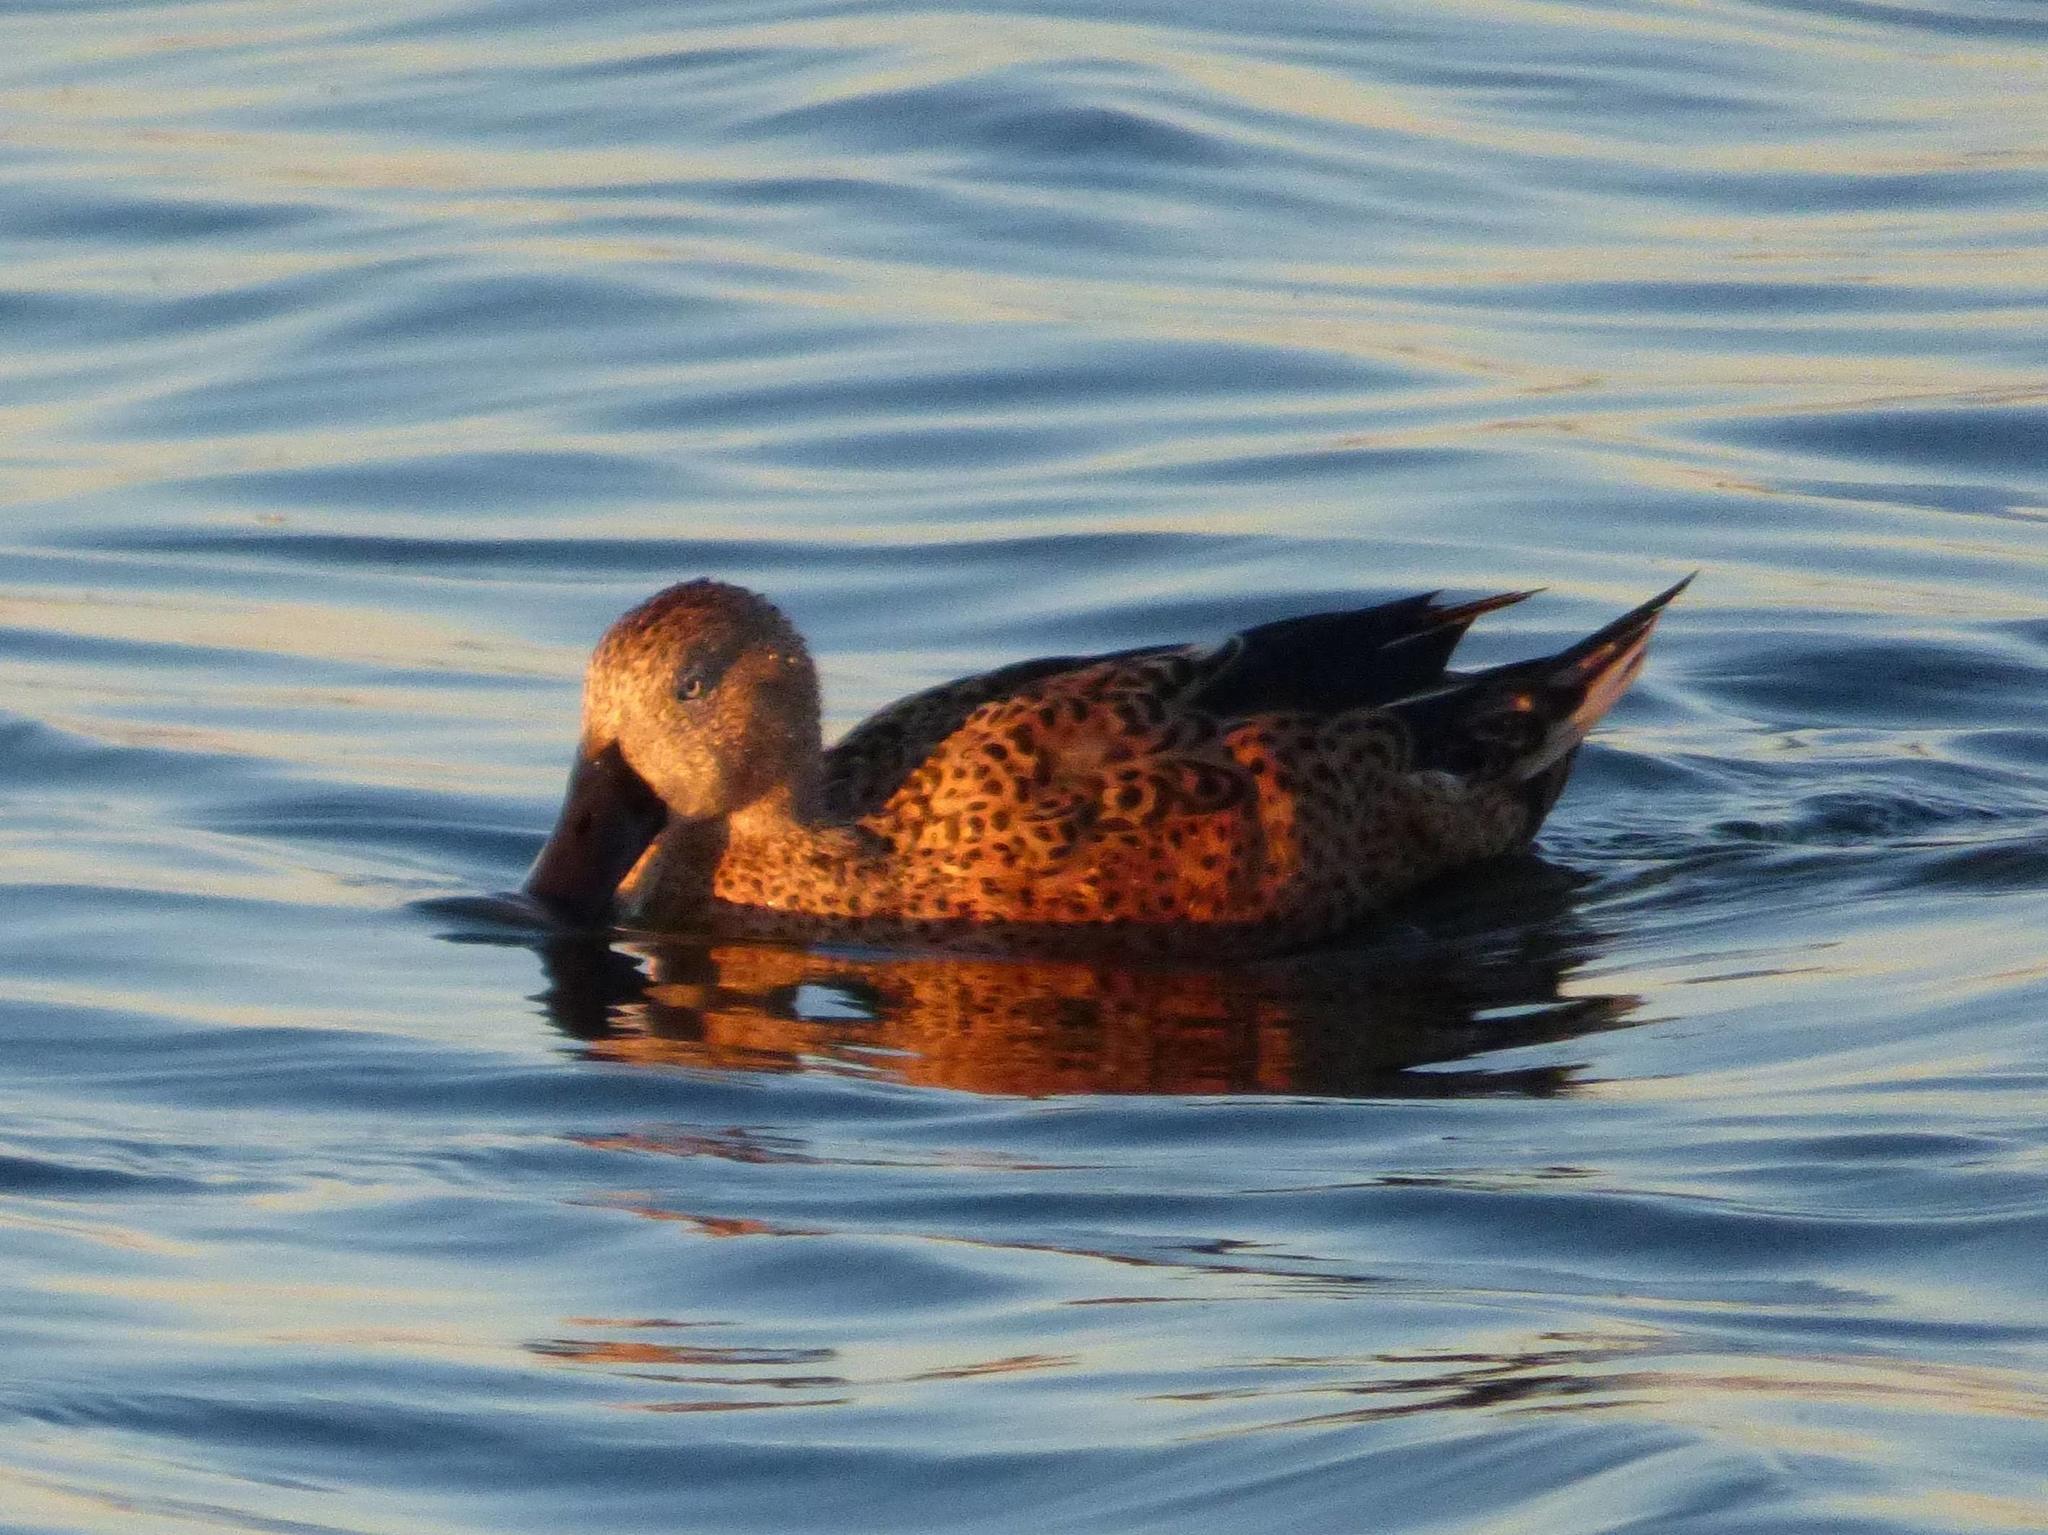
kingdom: Animalia
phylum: Chordata
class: Aves
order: Anseriformes
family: Anatidae
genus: Spatula
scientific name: Spatula platalea
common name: Red shoveler
